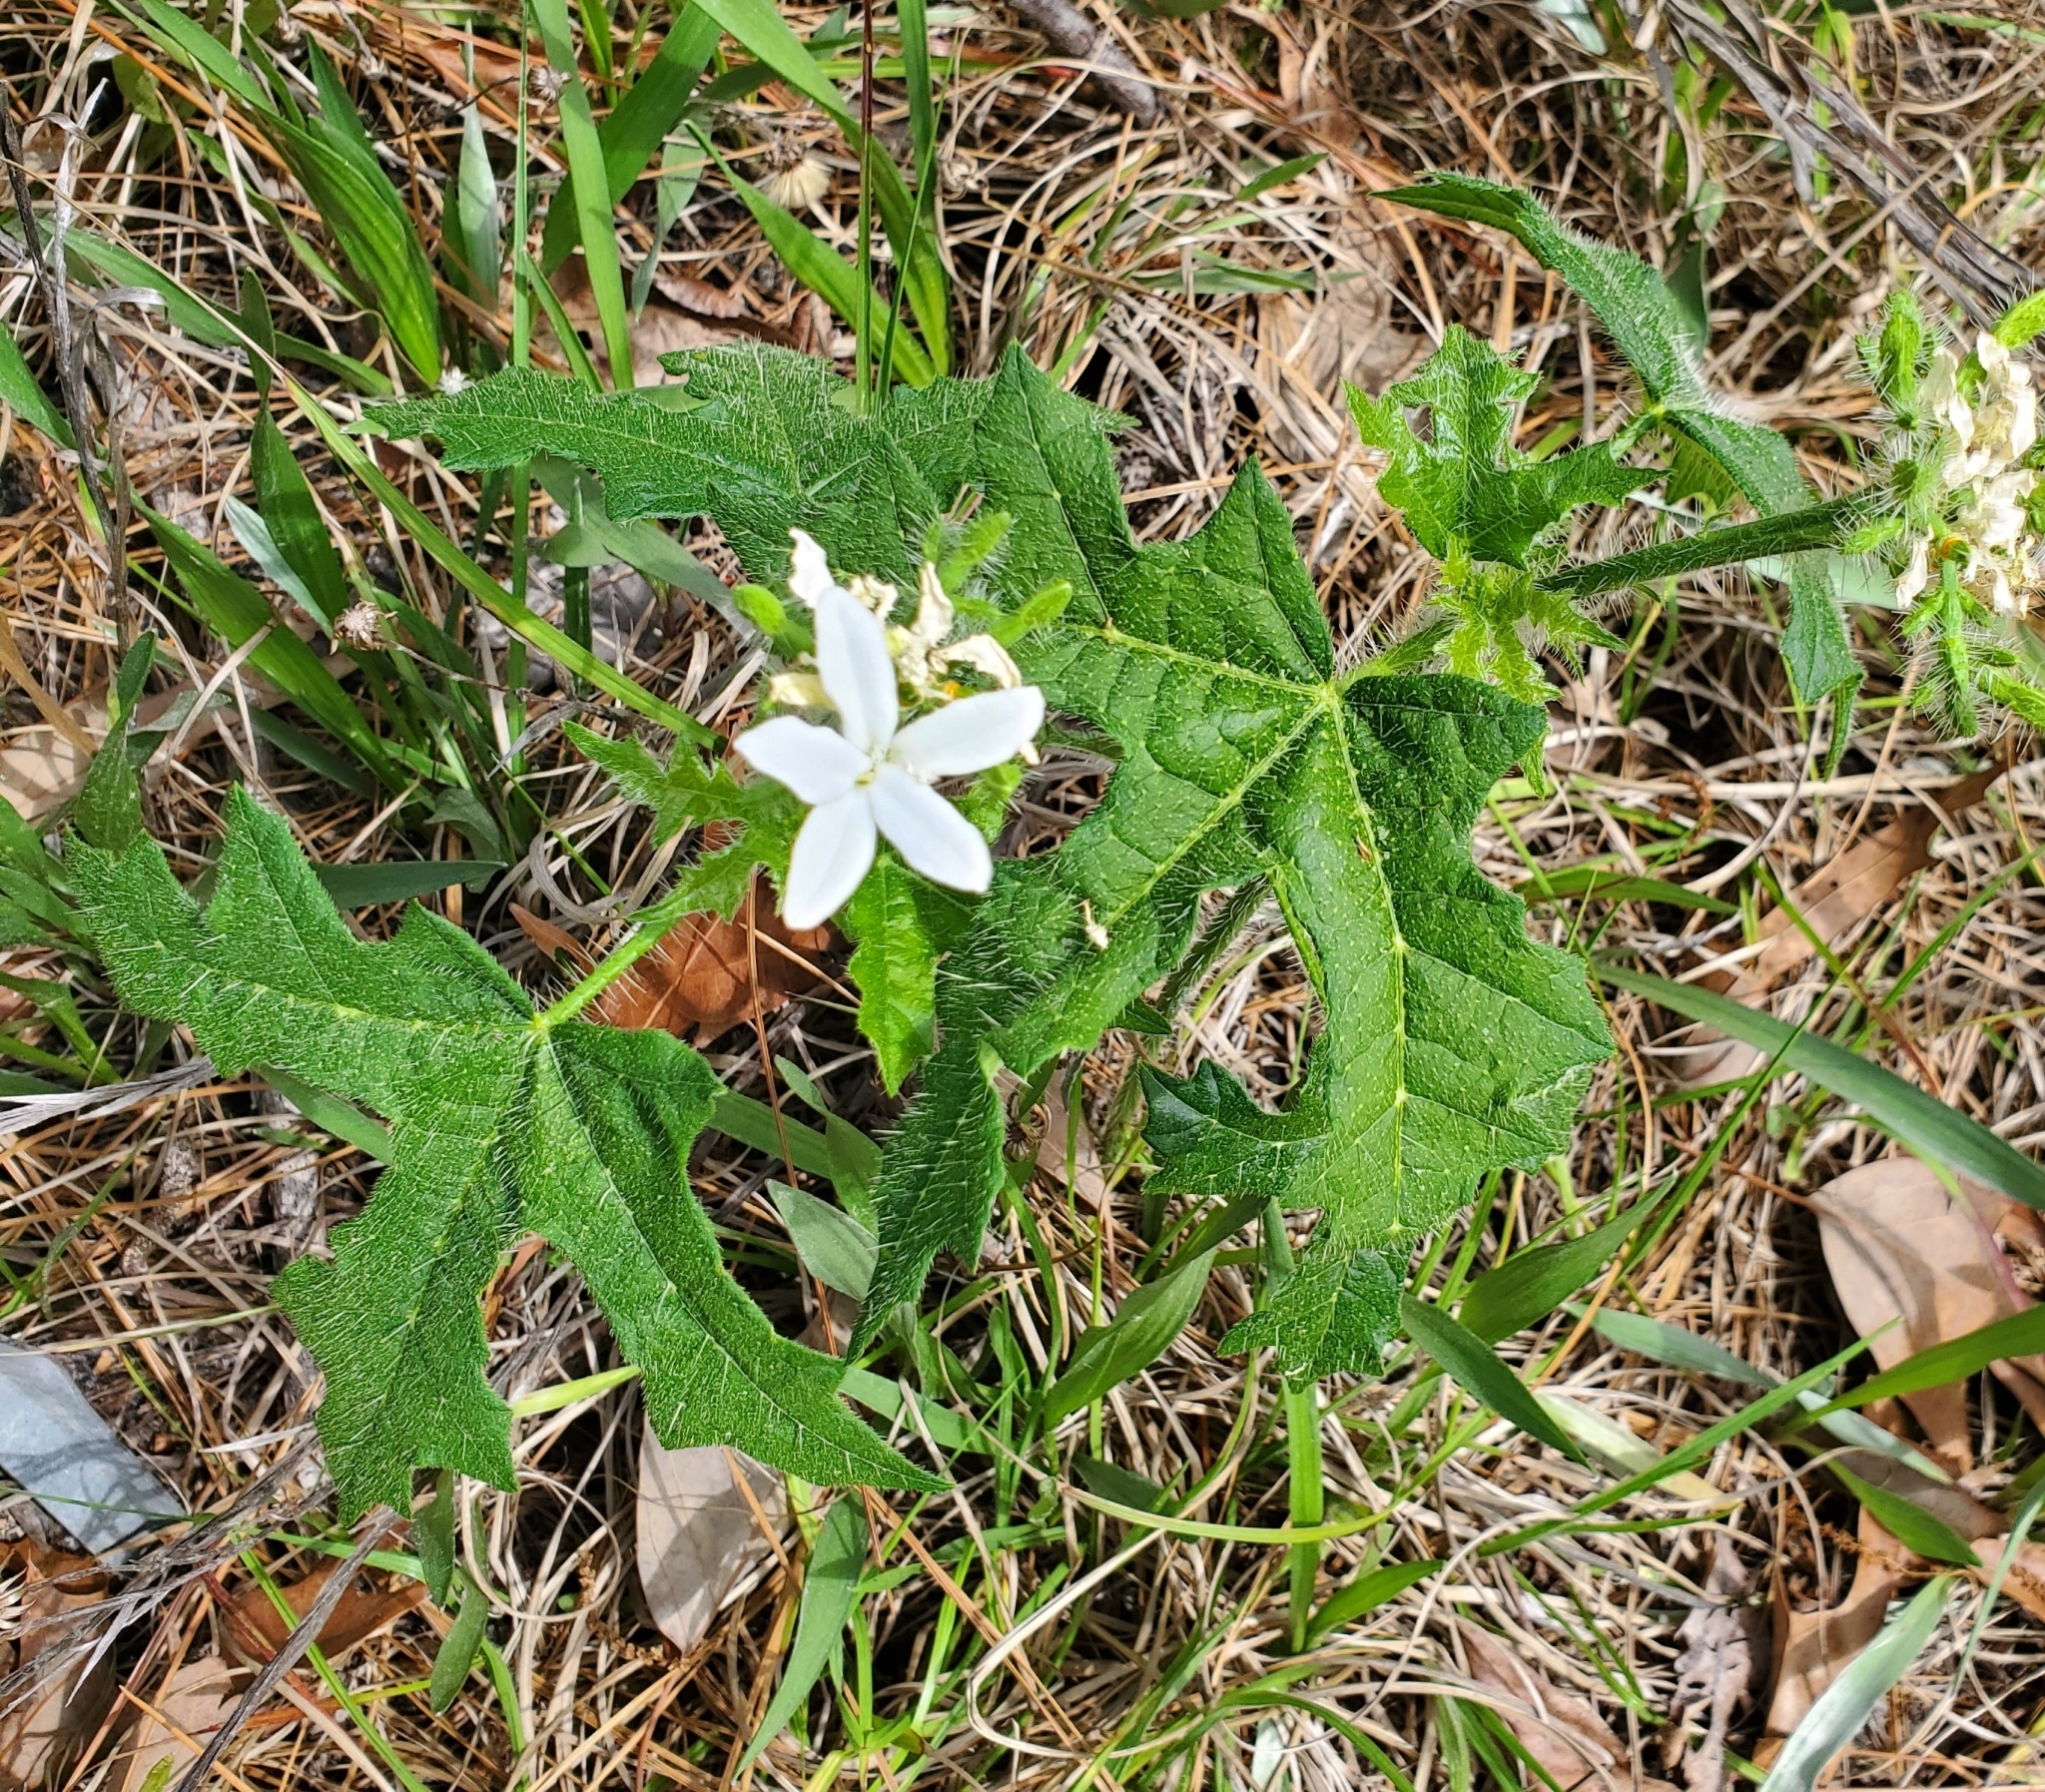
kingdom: Plantae
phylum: Tracheophyta
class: Magnoliopsida
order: Malpighiales
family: Euphorbiaceae
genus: Cnidoscolus
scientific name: Cnidoscolus stimulosus
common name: Bull-nettle
